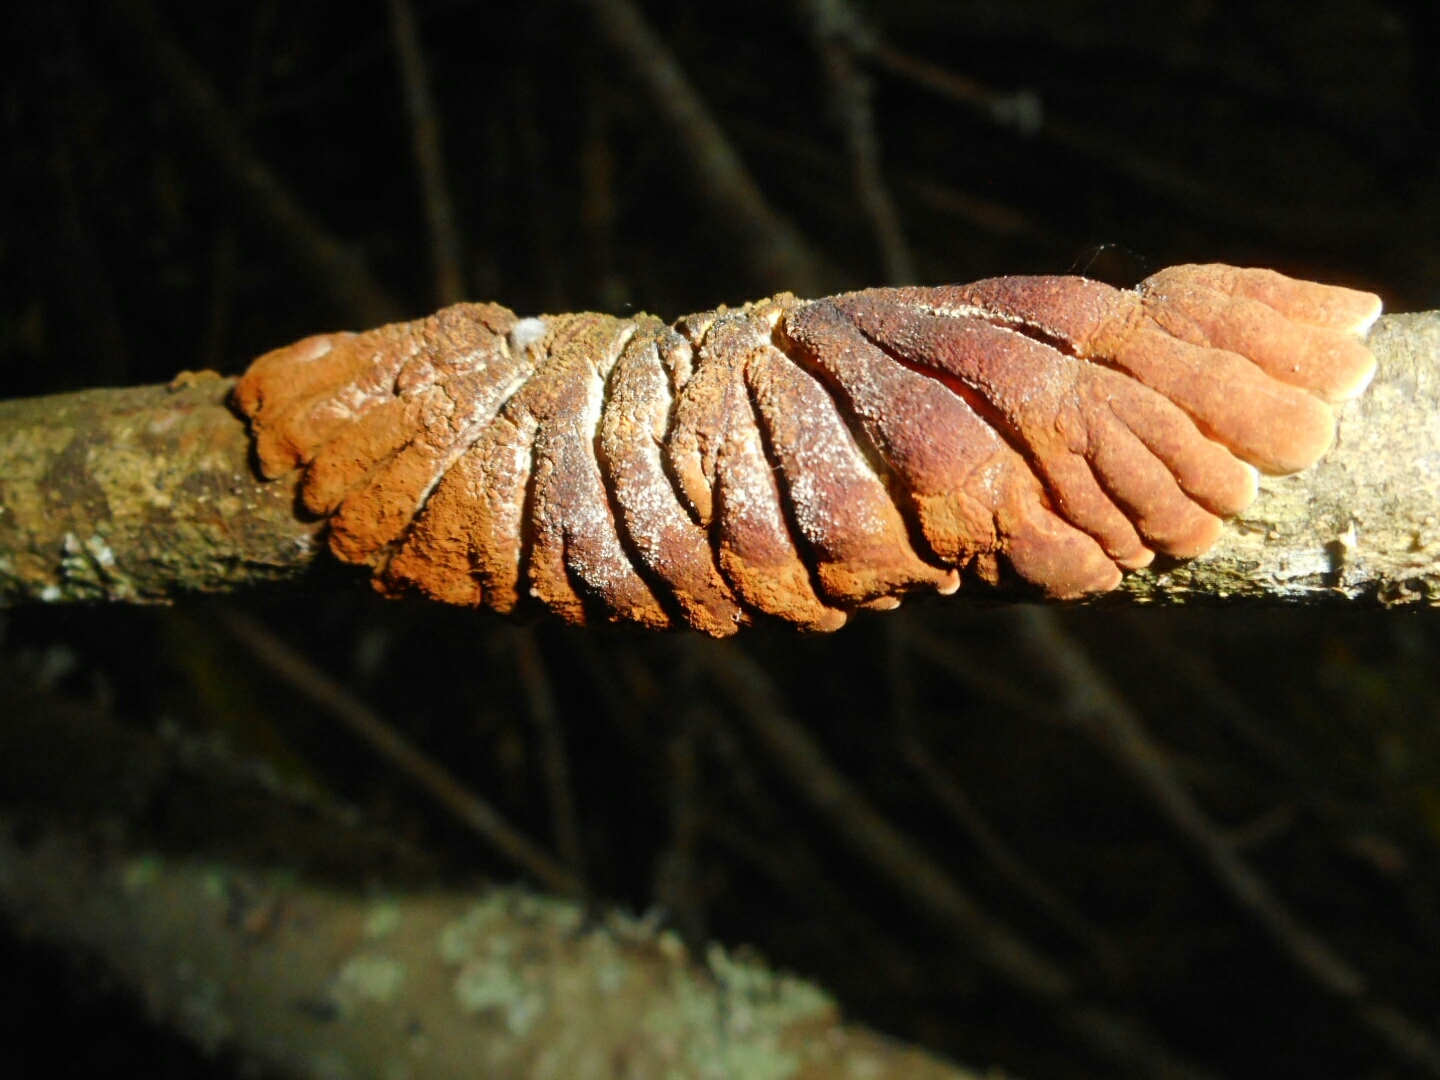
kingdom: Fungi
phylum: Ascomycota
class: Sordariomycetes
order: Hypocreales
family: Hypocreaceae
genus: Hypocreopsis
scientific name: Hypocreopsis lichenoides
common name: Willow gloves
